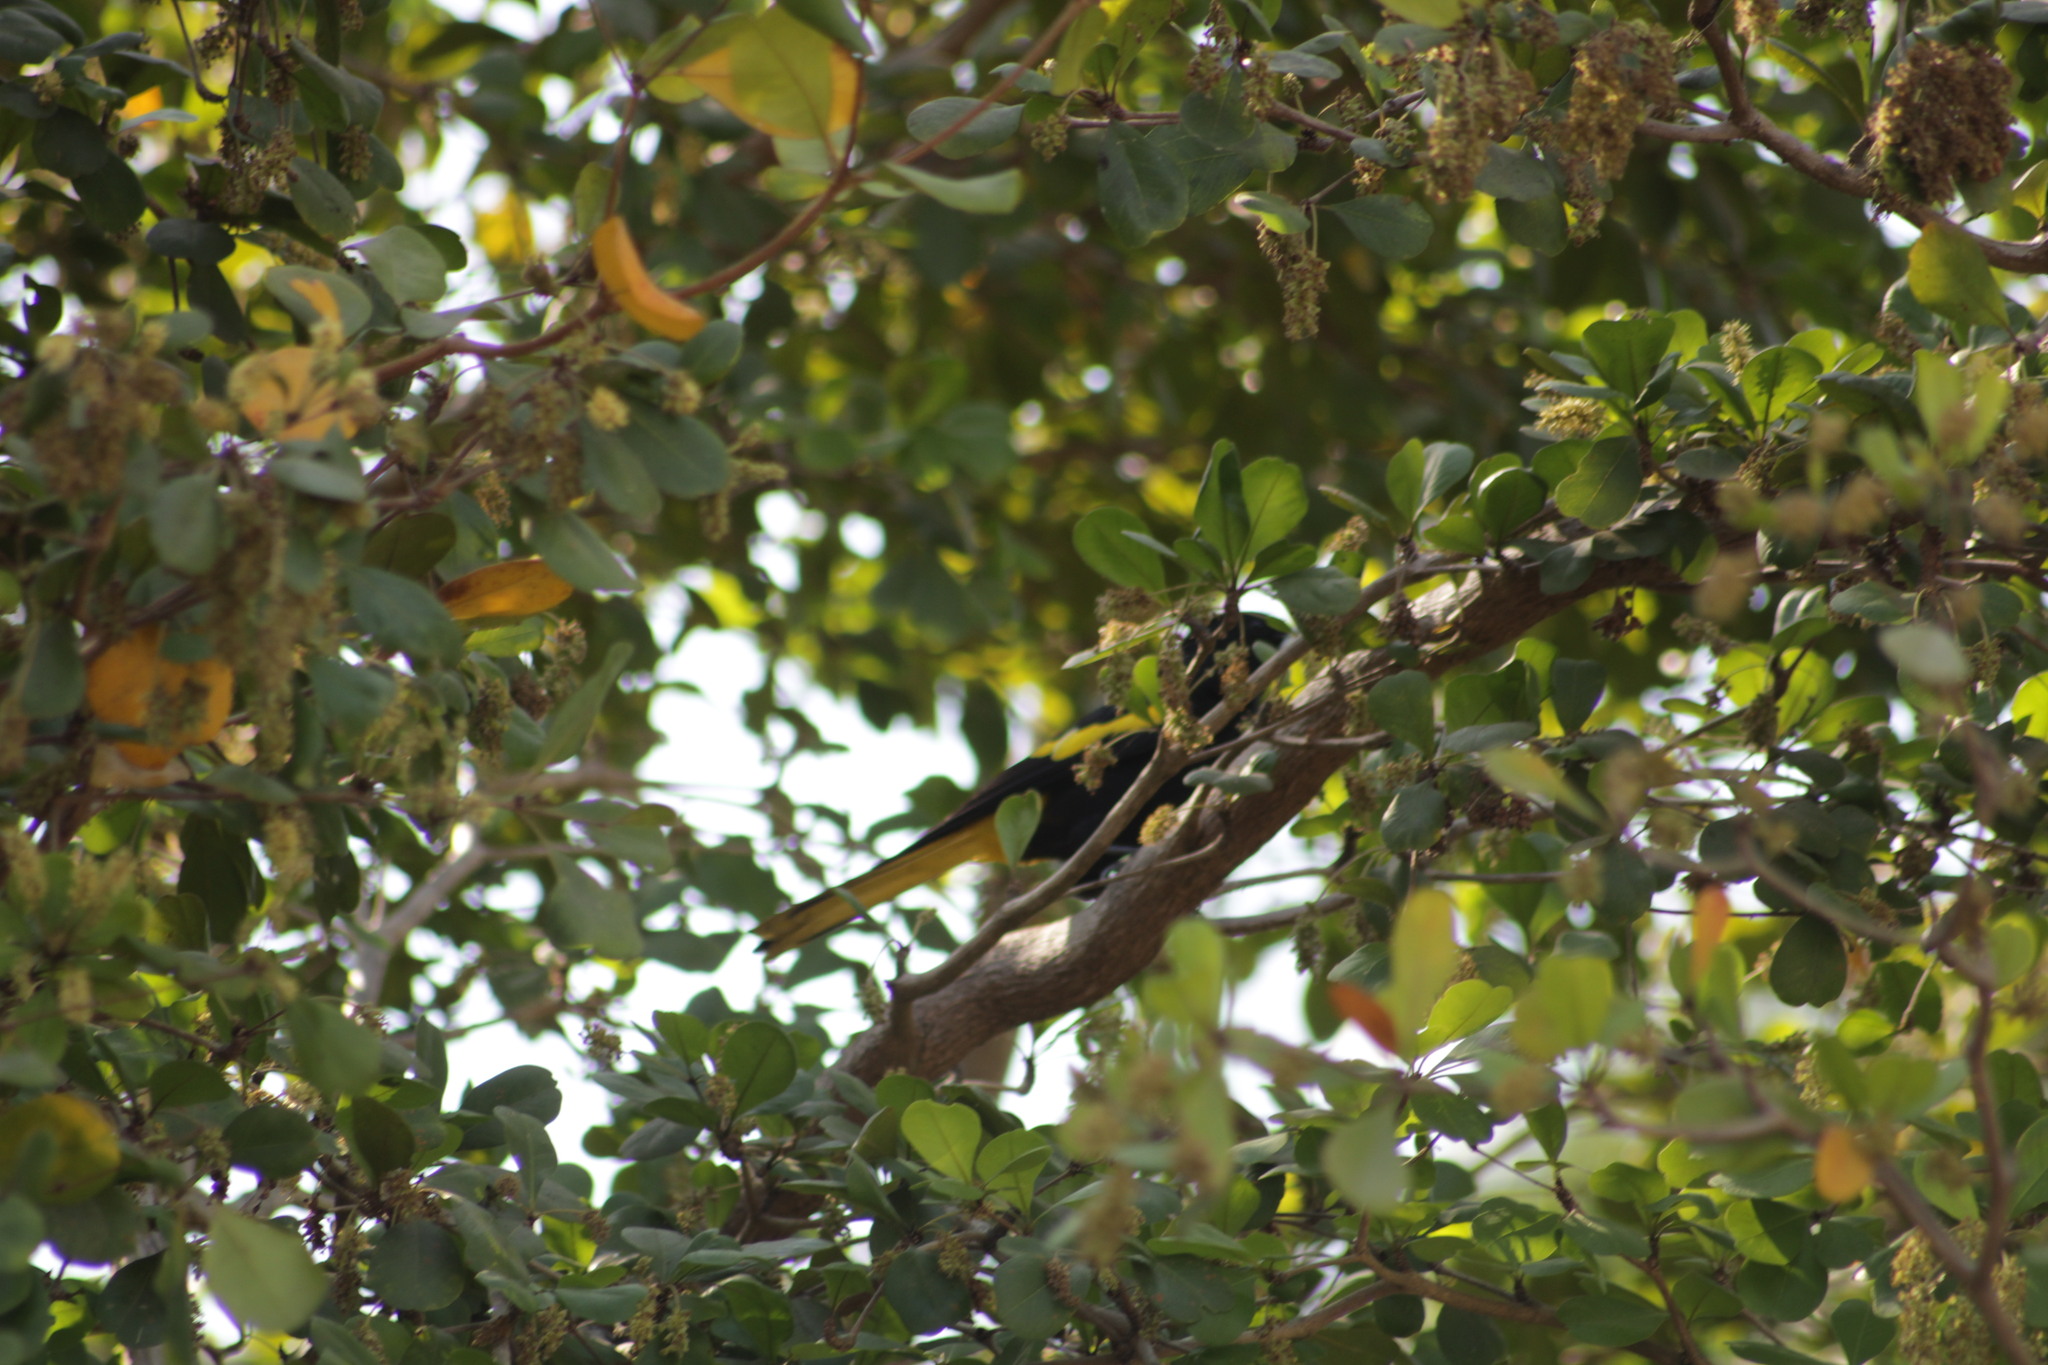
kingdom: Animalia
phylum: Chordata
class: Aves
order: Passeriformes
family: Icteridae
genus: Cacicus
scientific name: Cacicus melanicterus
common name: Yellow-winged cacique
